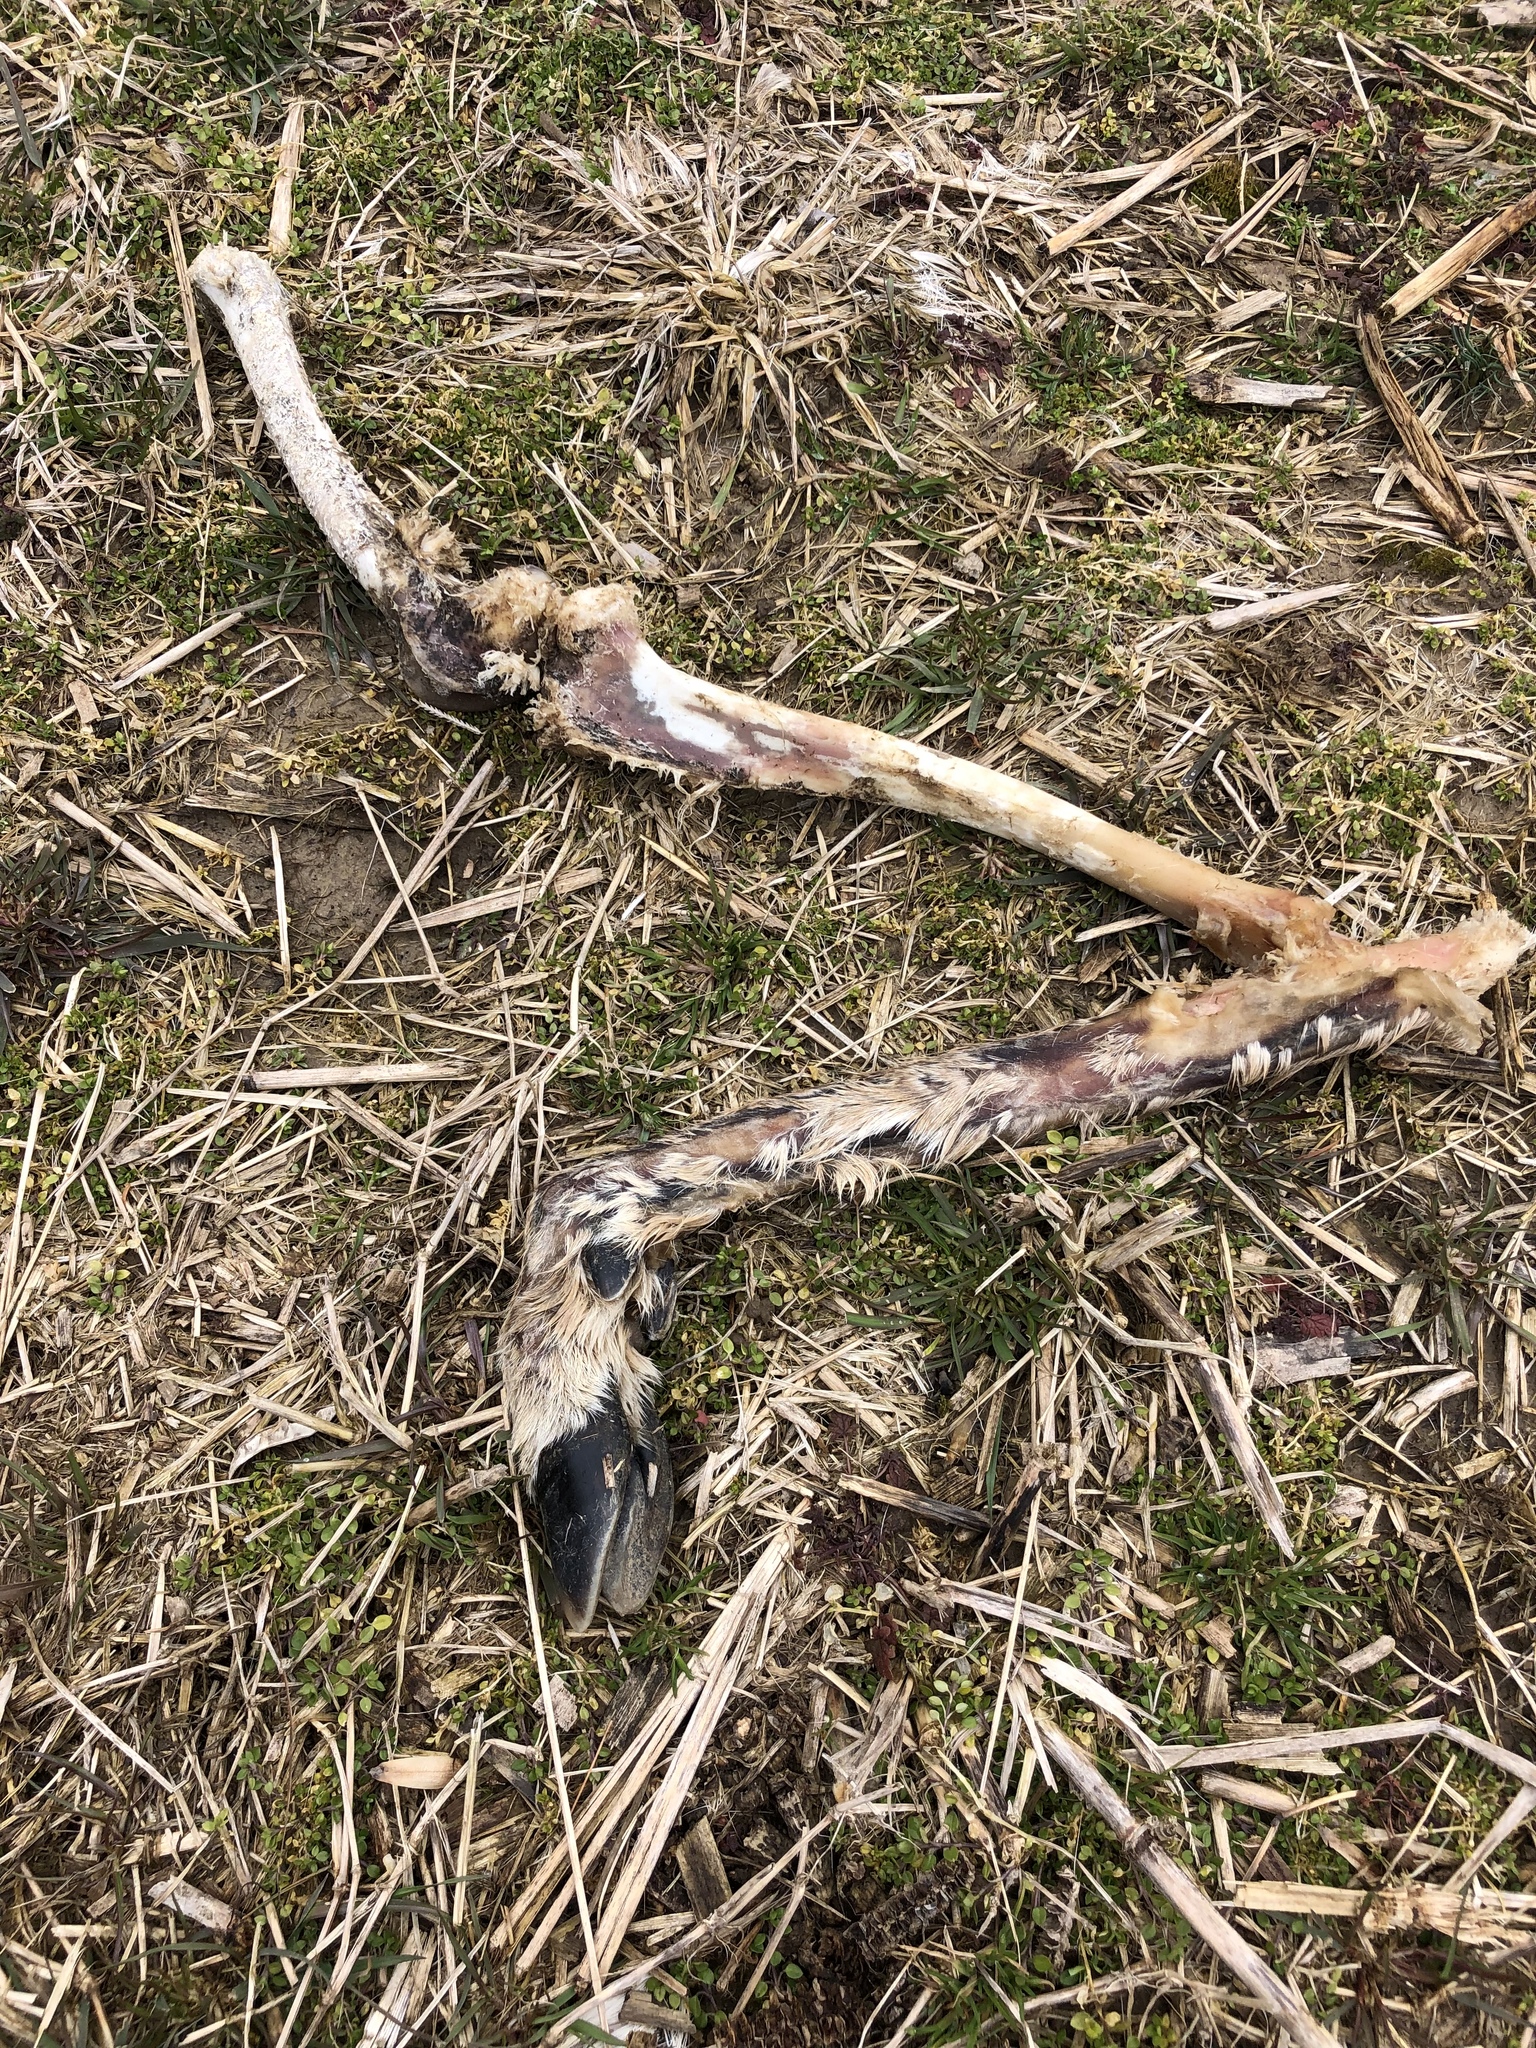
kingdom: Animalia
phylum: Chordata
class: Mammalia
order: Artiodactyla
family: Cervidae
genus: Odocoileus
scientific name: Odocoileus virginianus
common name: White-tailed deer
